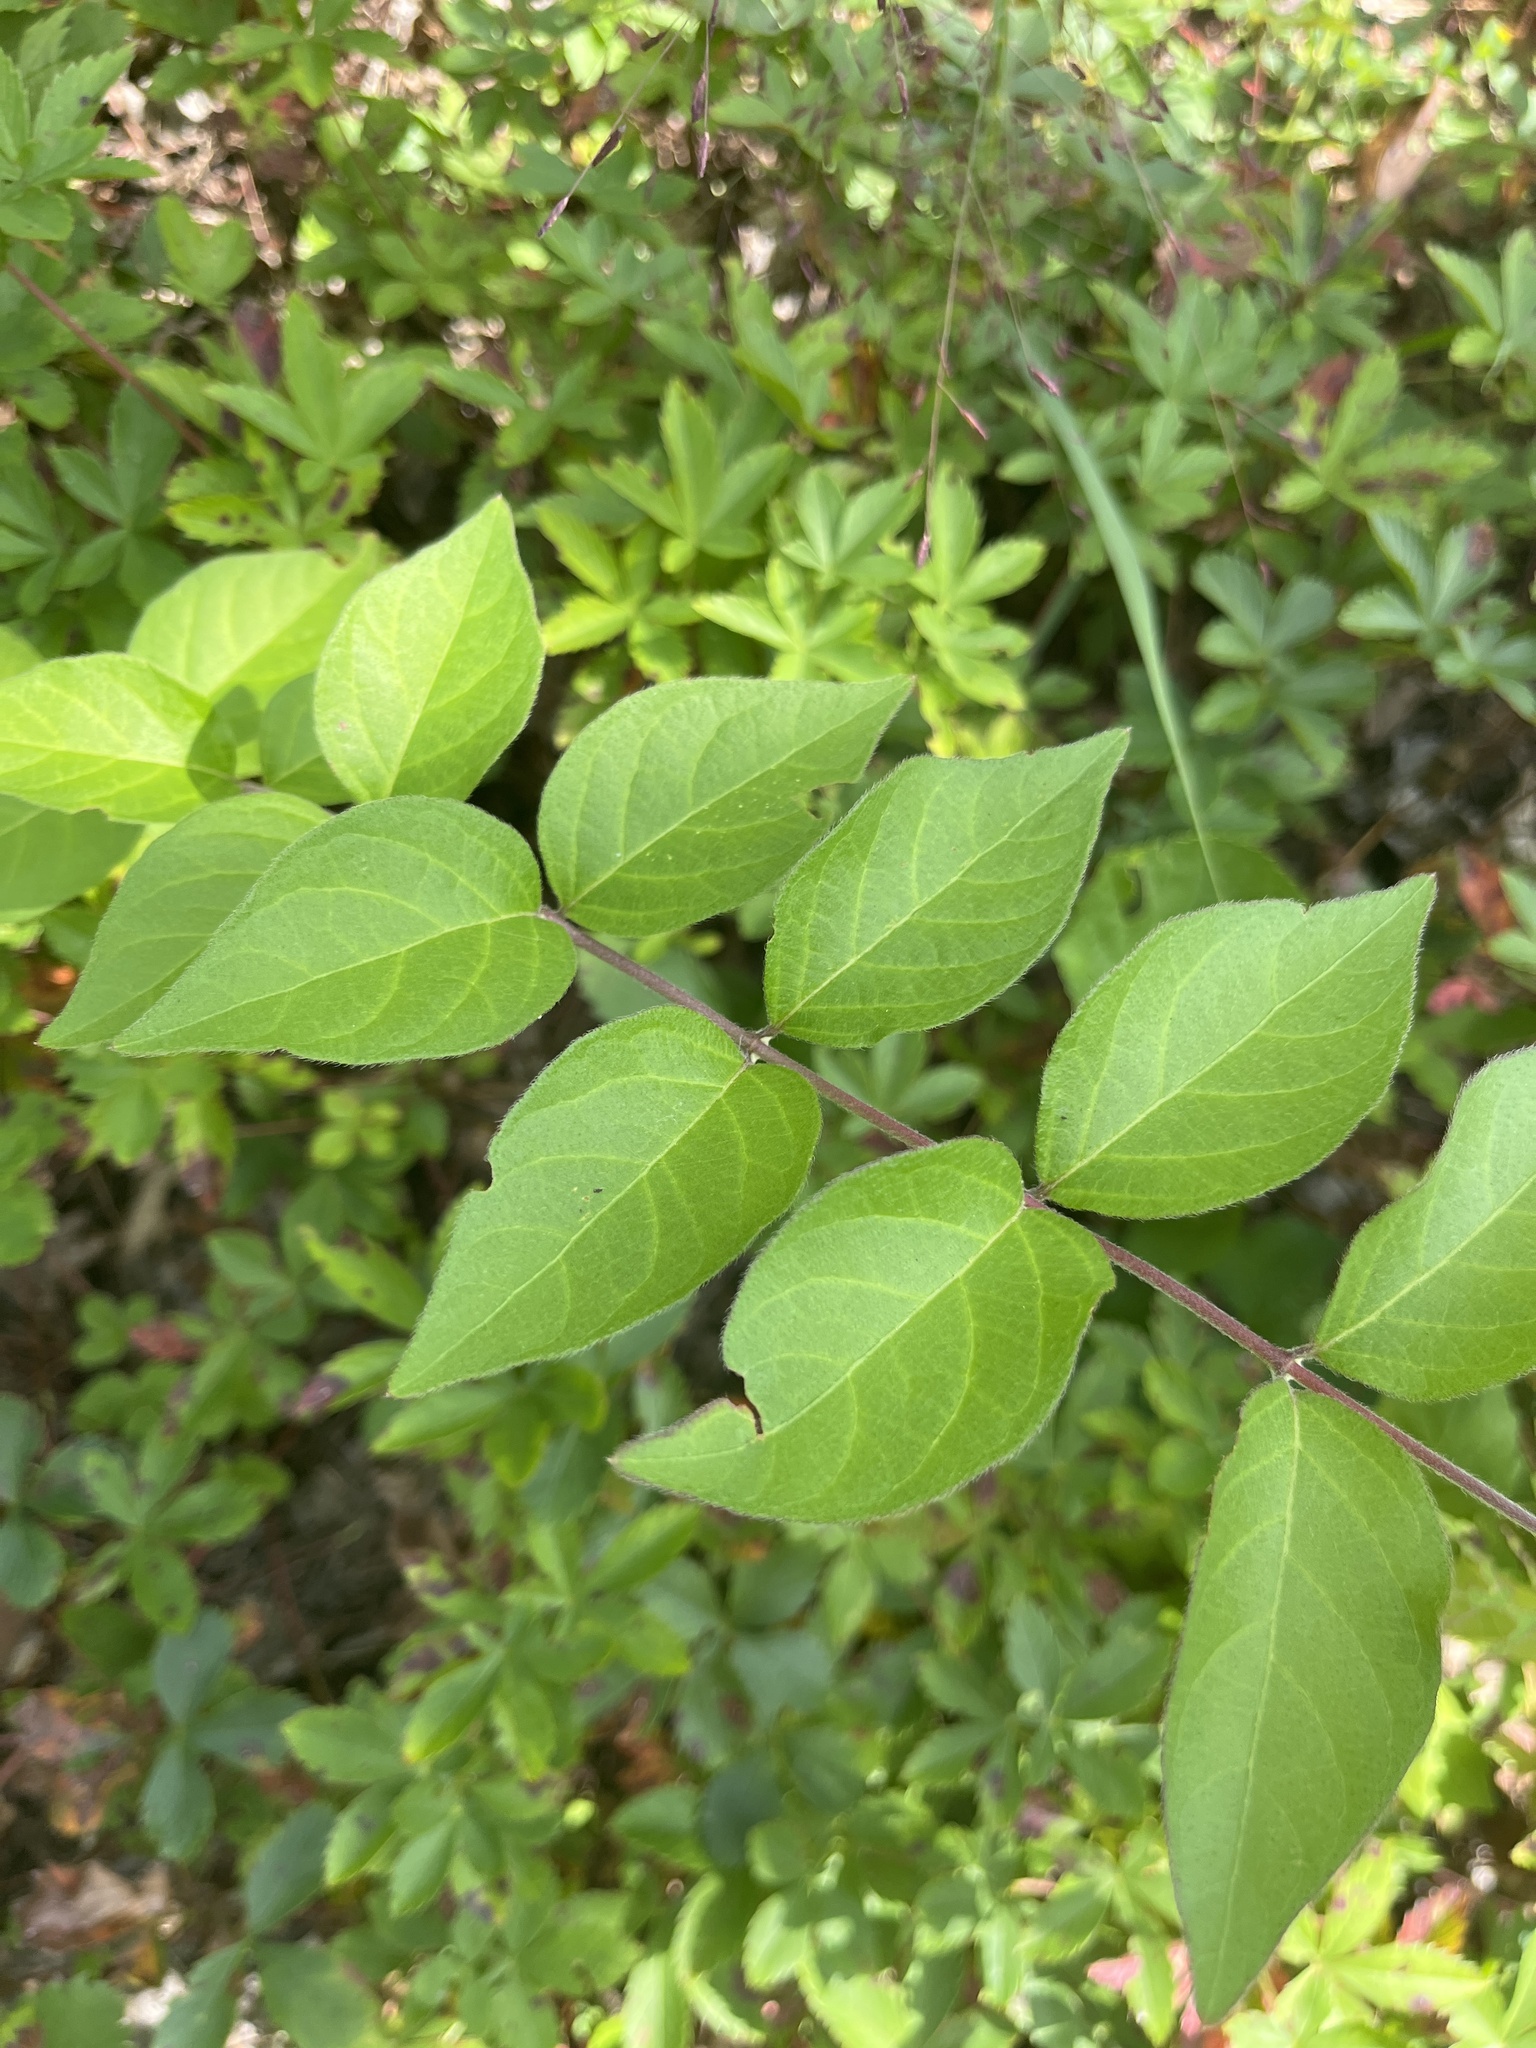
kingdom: Plantae
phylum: Tracheophyta
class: Magnoliopsida
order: Dipsacales
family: Caprifoliaceae
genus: Lonicera
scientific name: Lonicera maackii
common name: Amur honeysuckle
